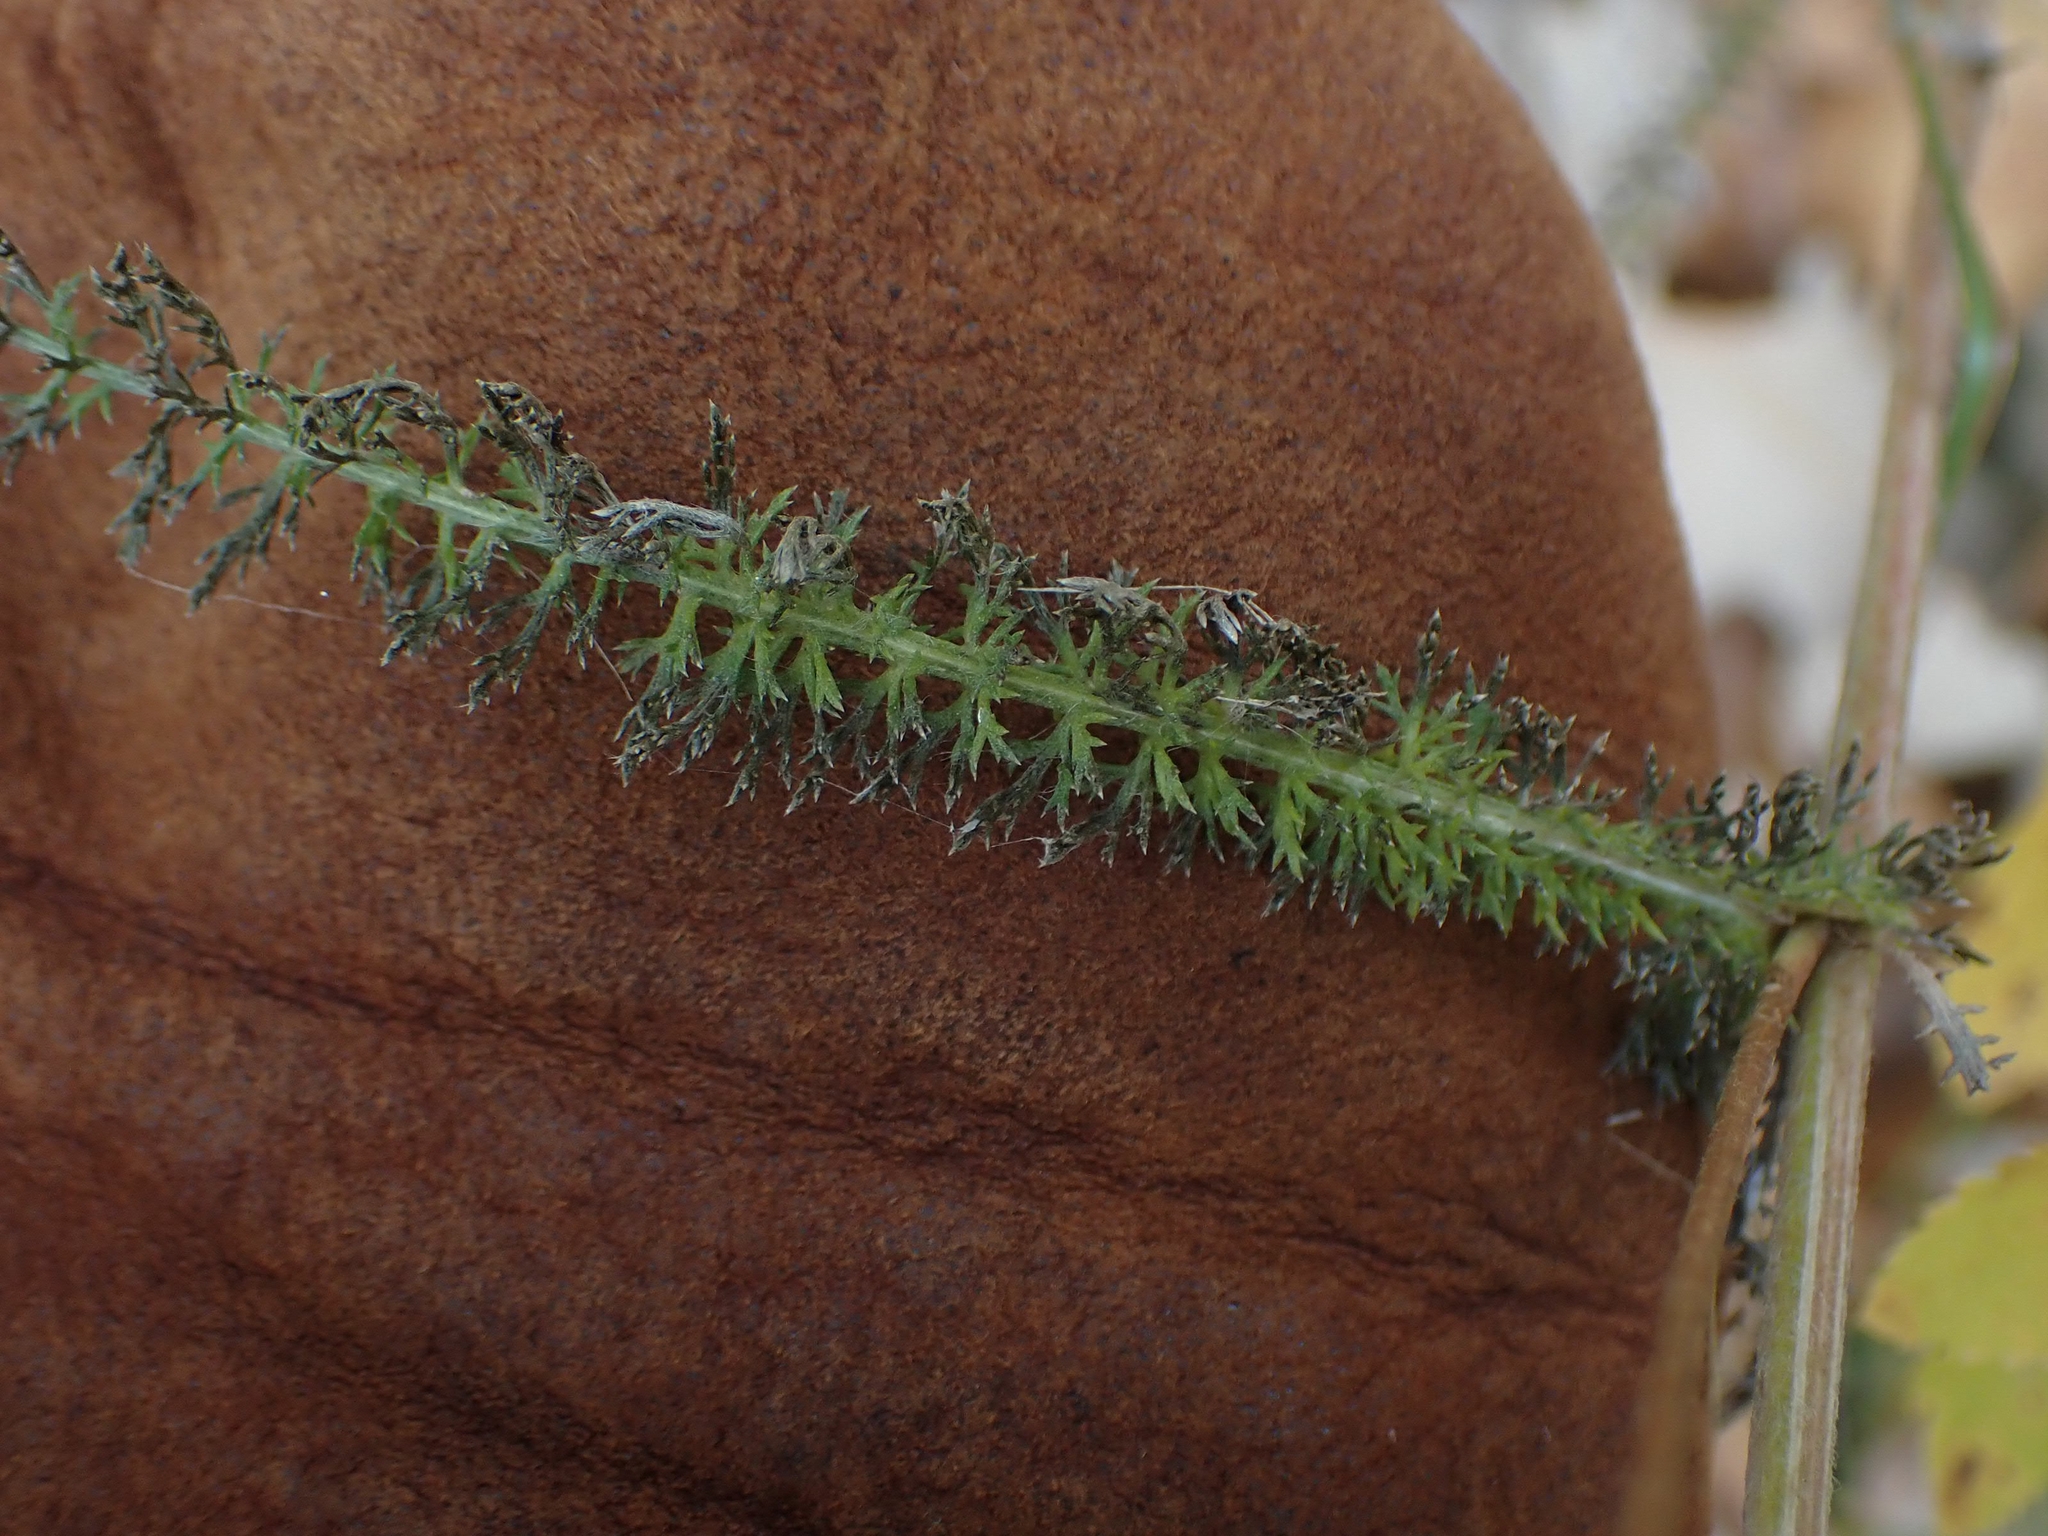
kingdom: Plantae
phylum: Tracheophyta
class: Magnoliopsida
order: Asterales
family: Asteraceae
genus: Achillea
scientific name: Achillea millefolium
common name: Yarrow
